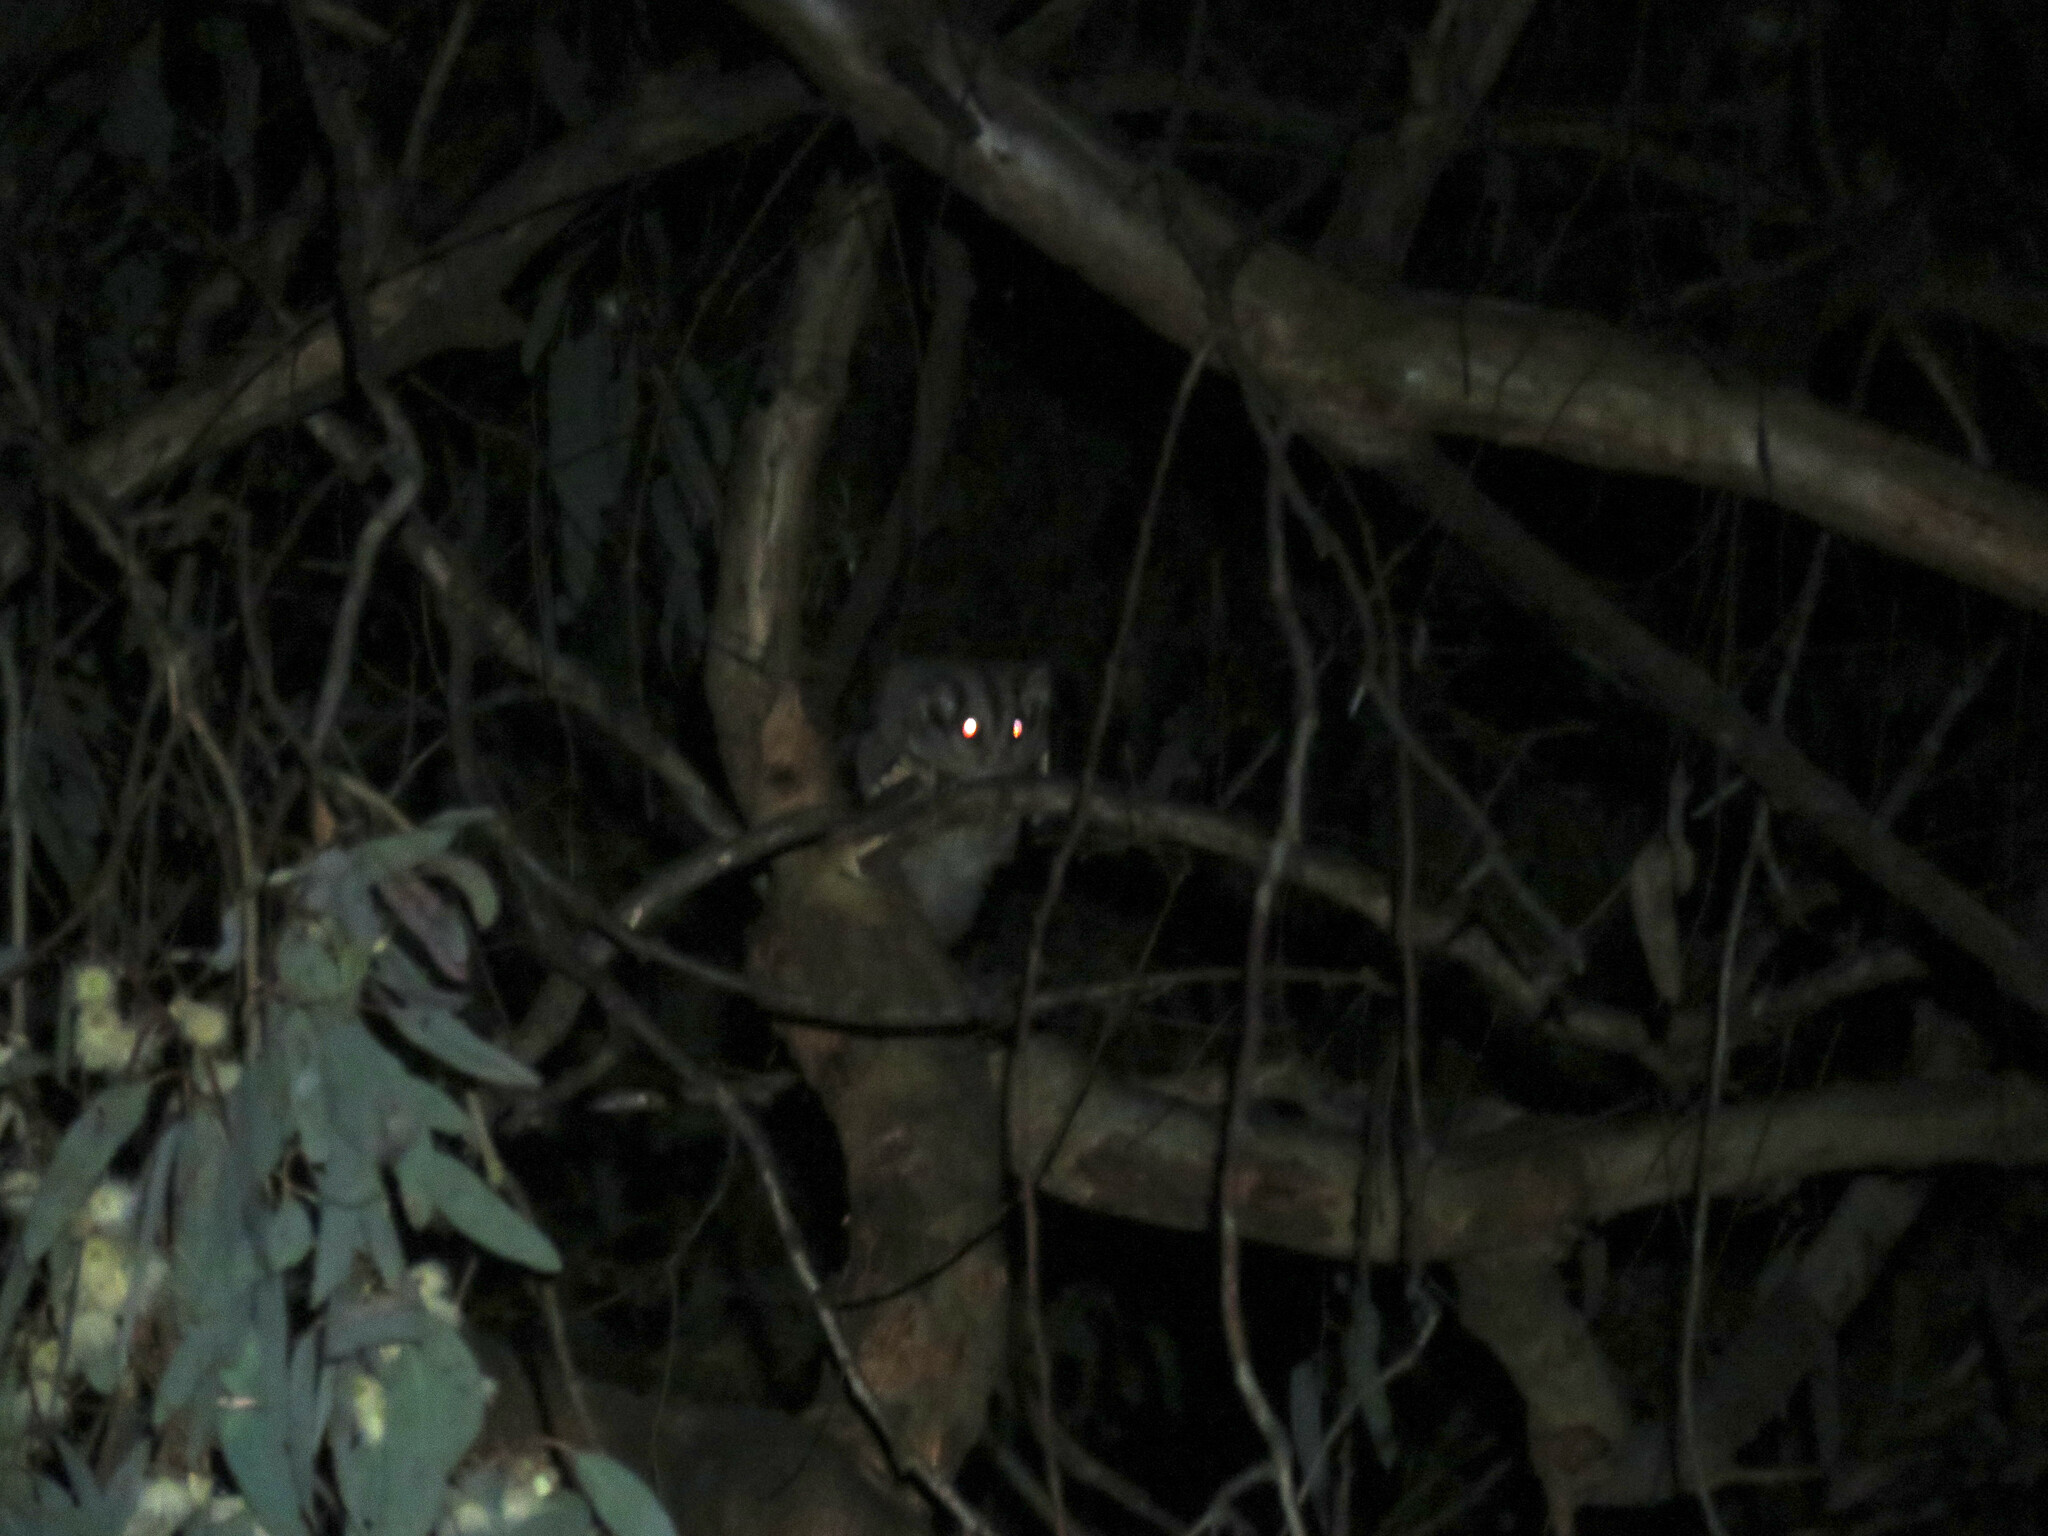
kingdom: Animalia
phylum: Chordata
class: Mammalia
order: Diprotodontia
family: Petauridae
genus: Petaurus
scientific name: Petaurus breviceps
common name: Sugar glider
